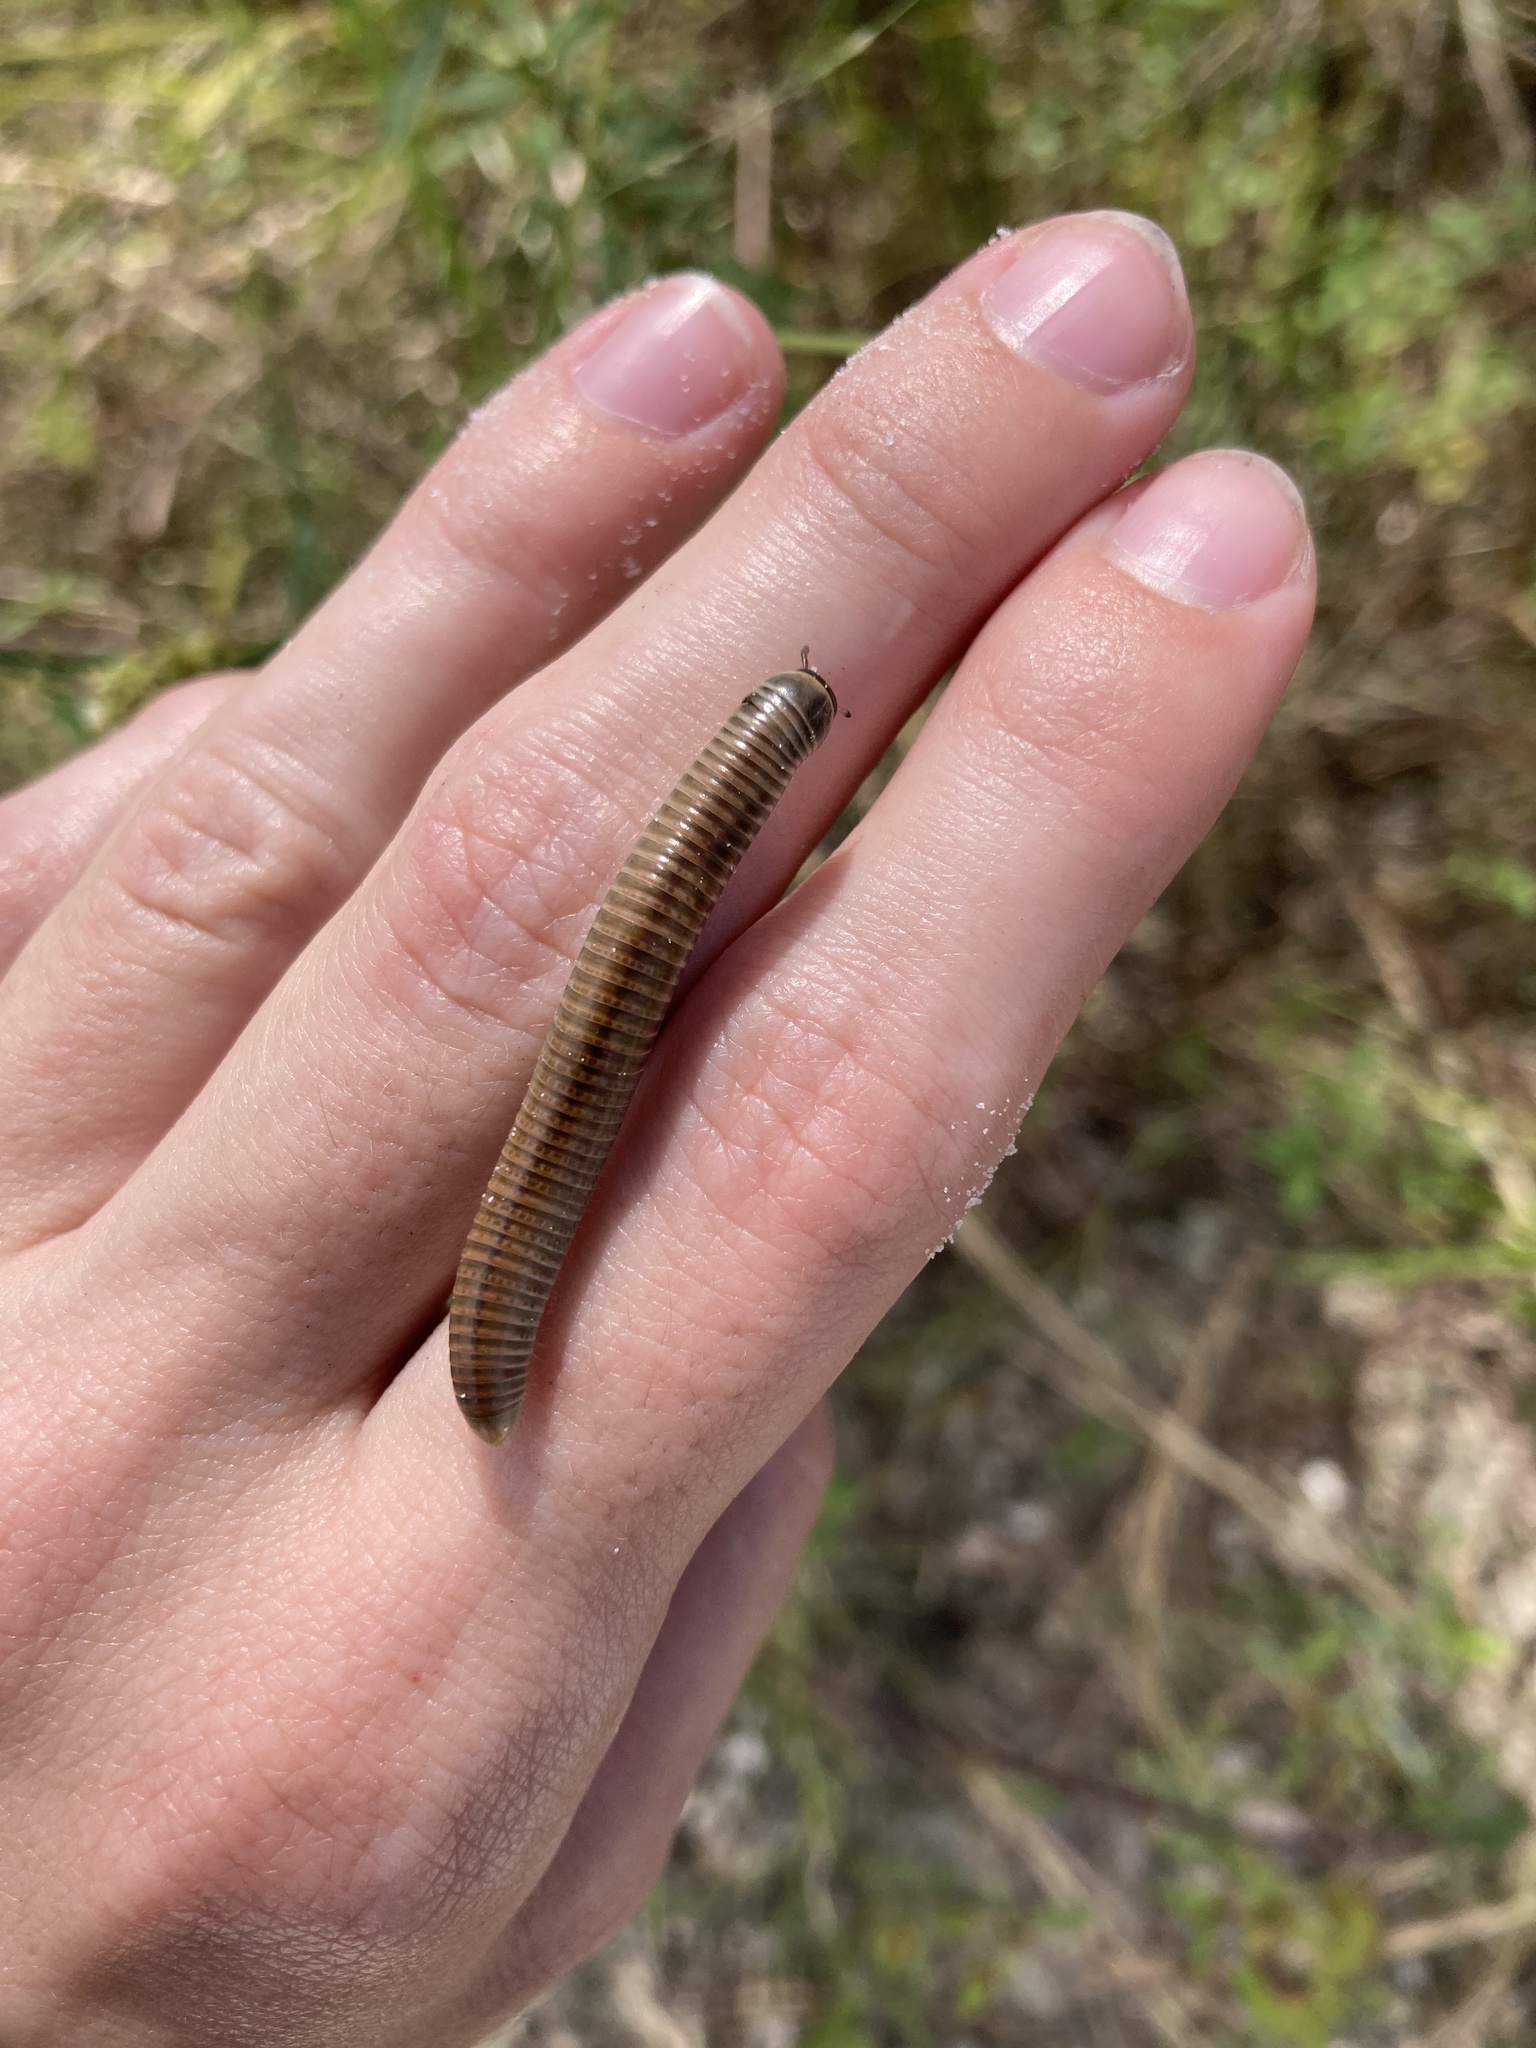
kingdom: Animalia
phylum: Arthropoda
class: Diplopoda
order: Spirobolida
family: Spirobolidae
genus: Chicobolus
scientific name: Chicobolus spinigerus
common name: Florida ivory millipede
